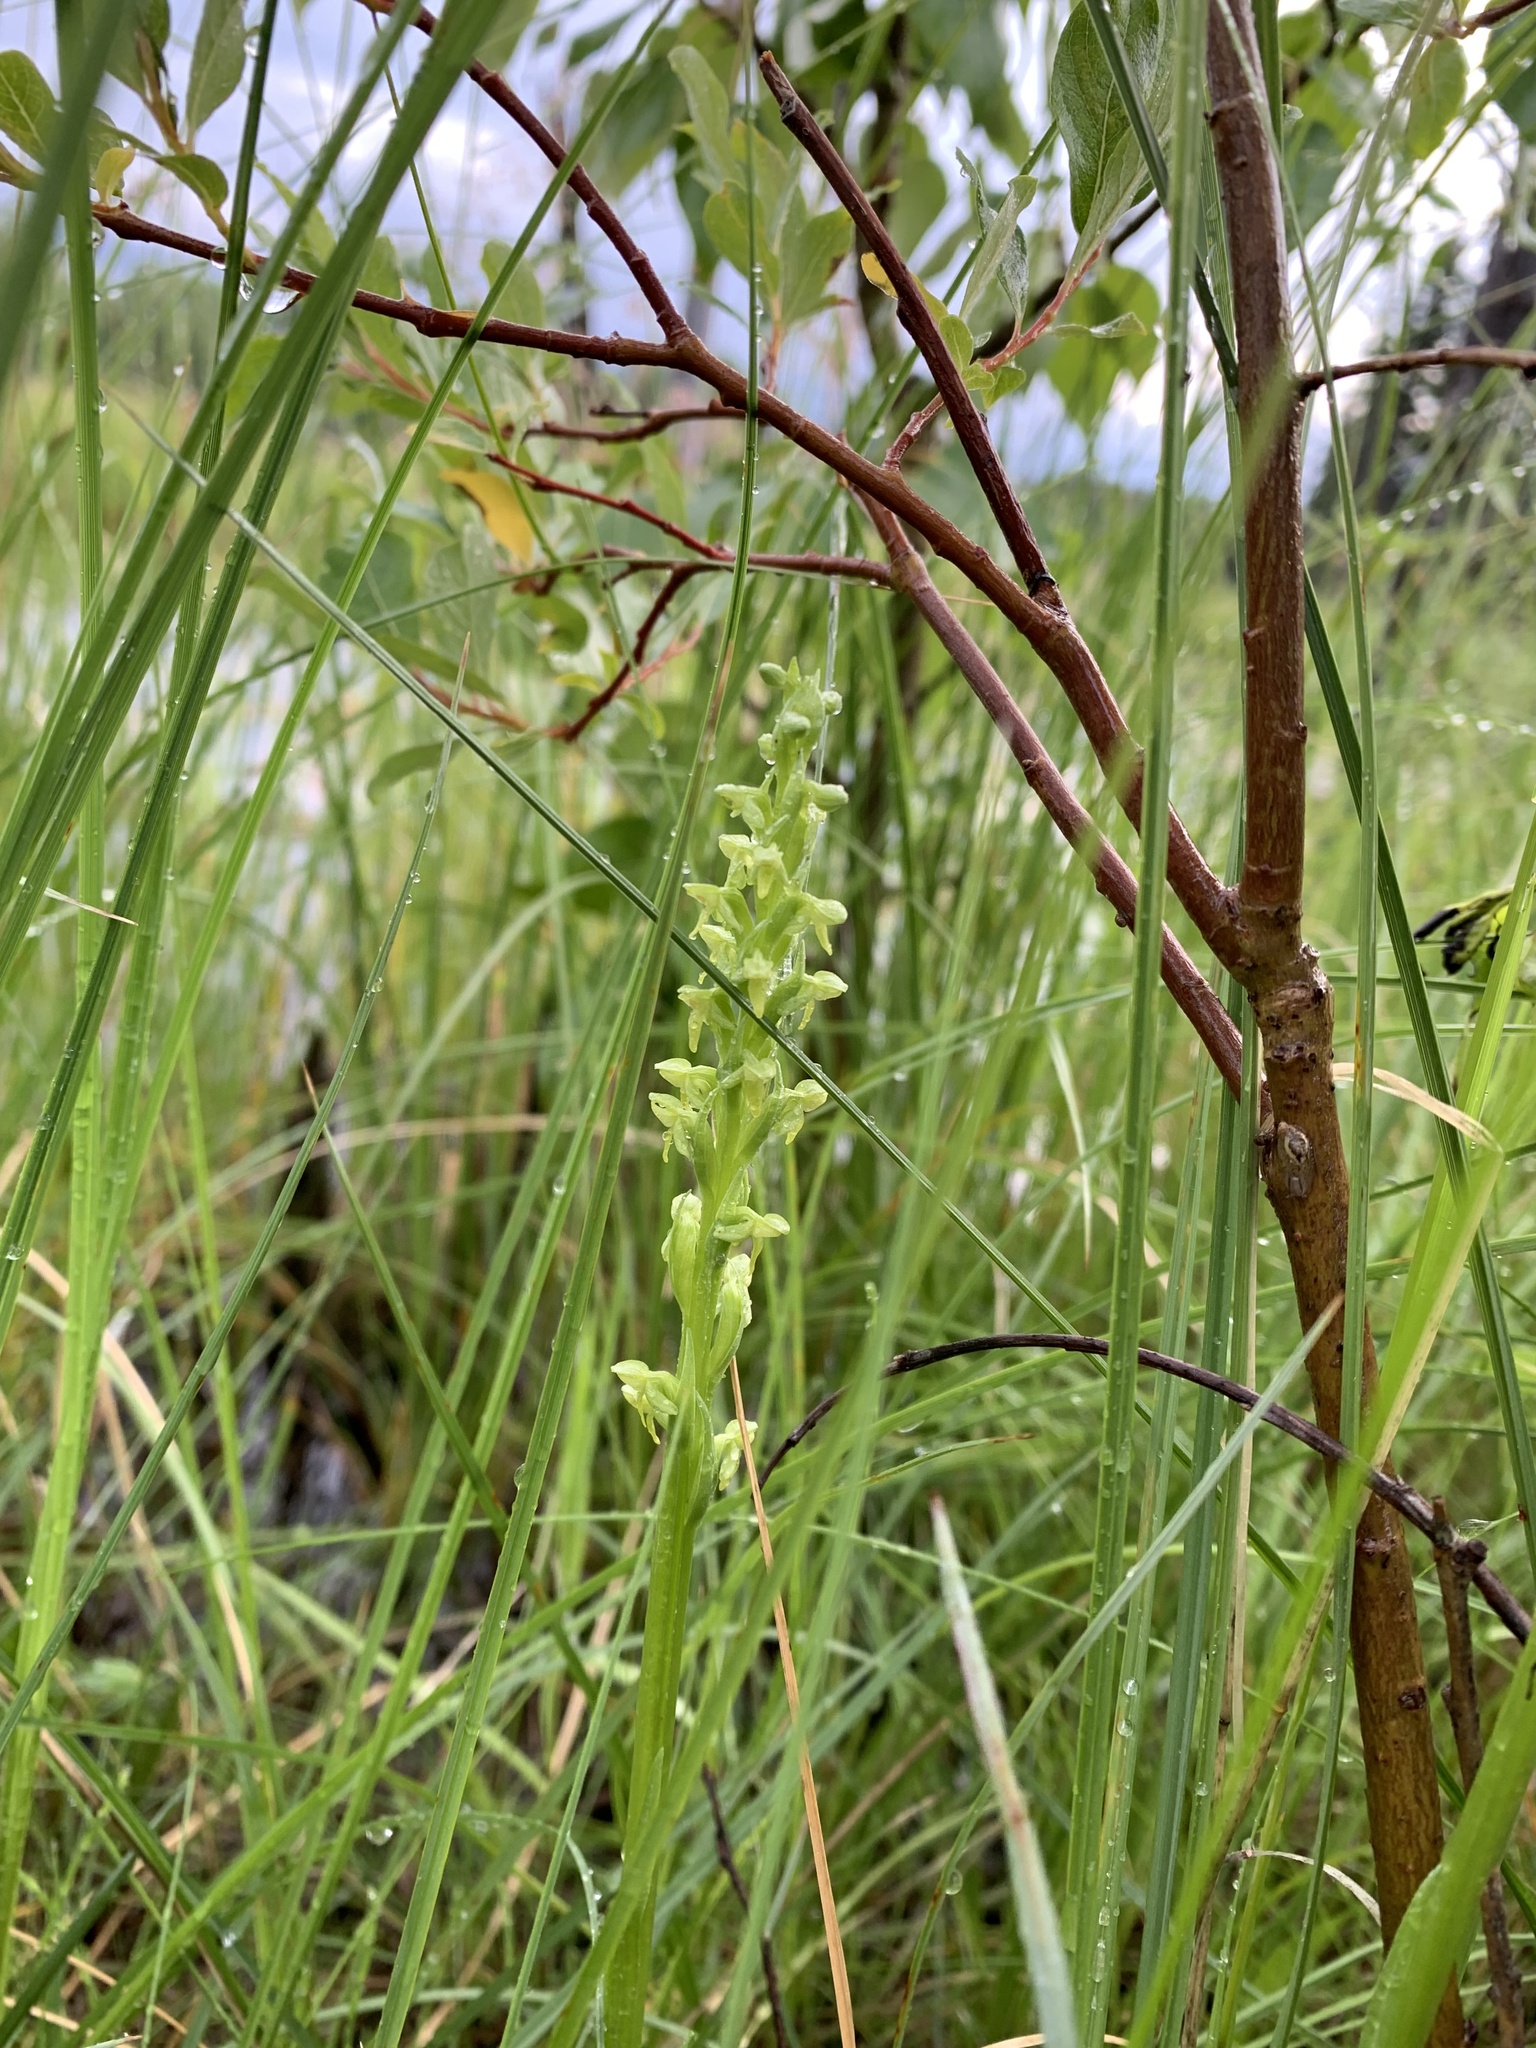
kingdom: Plantae
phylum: Tracheophyta
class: Liliopsida
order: Asparagales
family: Orchidaceae
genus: Platanthera
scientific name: Platanthera aquilonis
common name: Northern green orchid
